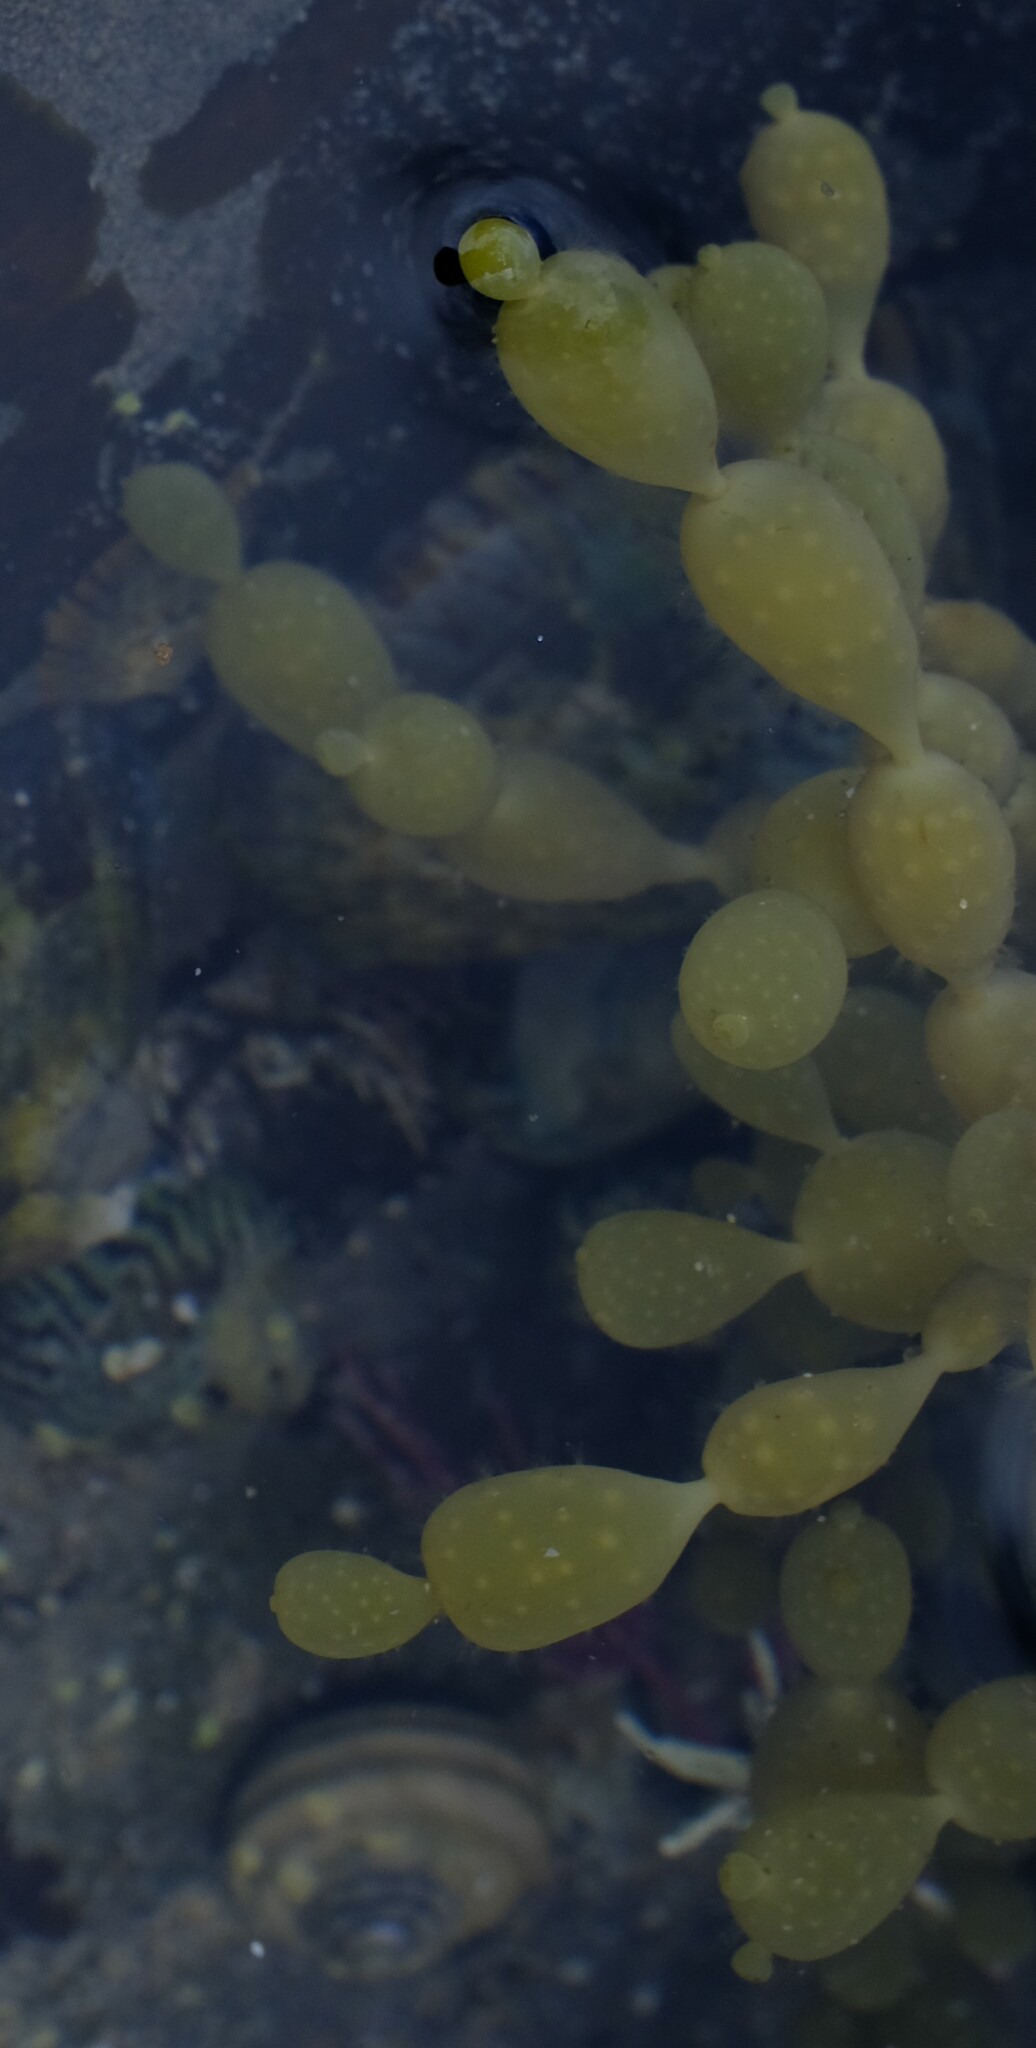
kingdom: Chromista
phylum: Ochrophyta
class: Phaeophyceae
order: Fucales
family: Hormosiraceae
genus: Hormosira
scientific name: Hormosira banksii
